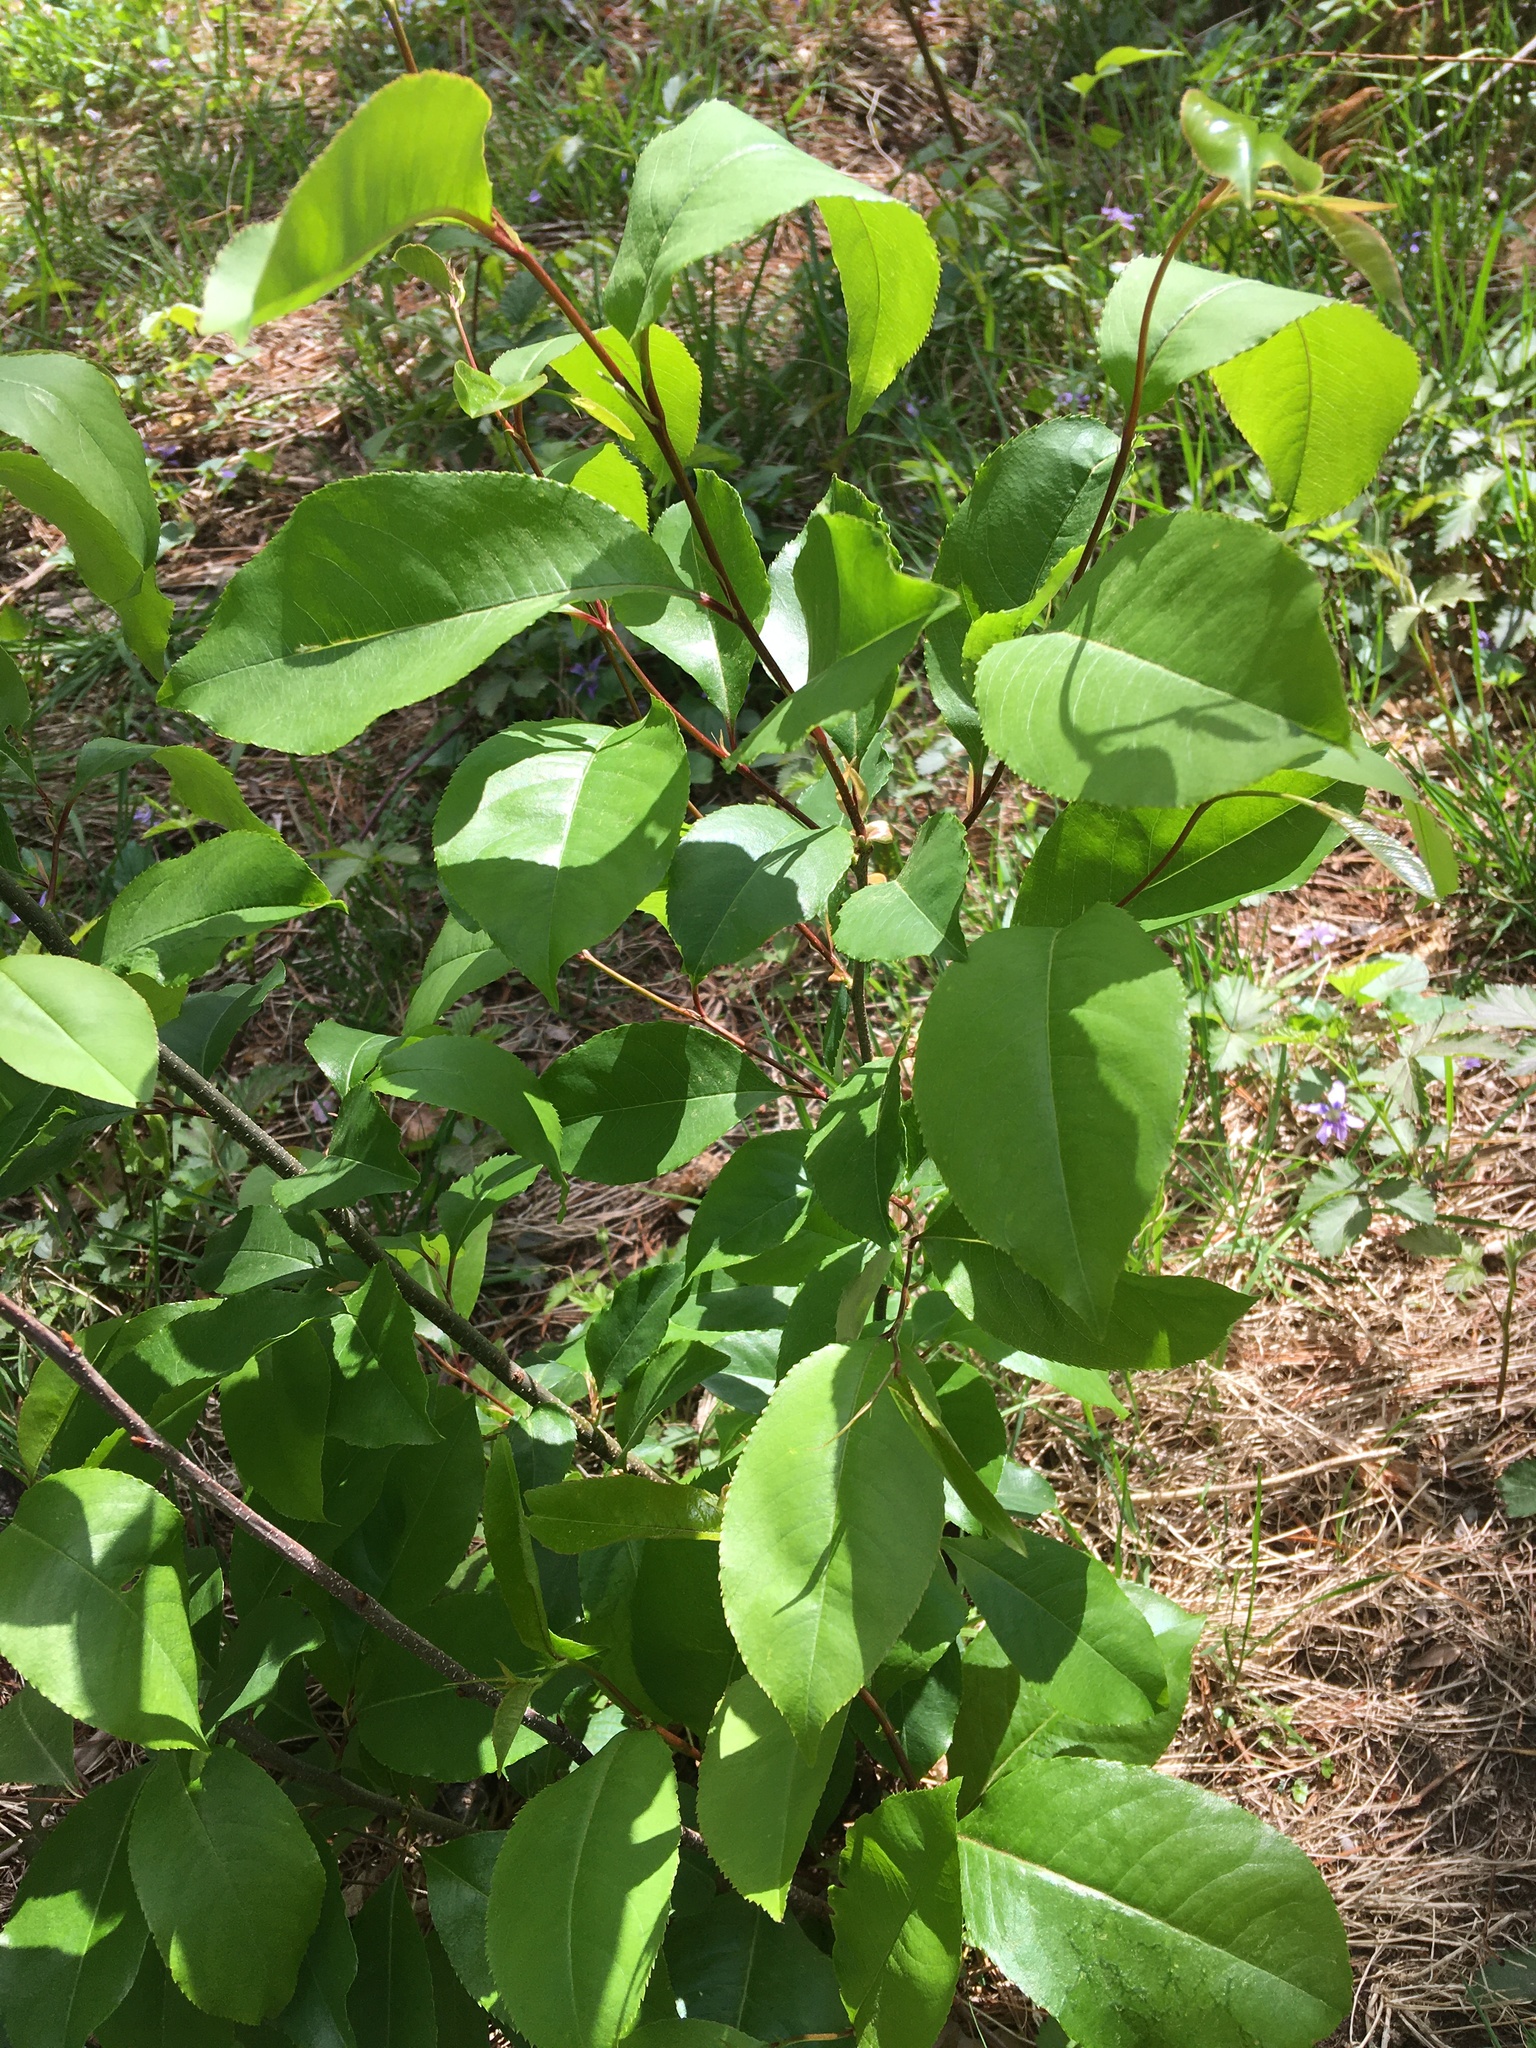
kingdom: Plantae
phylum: Tracheophyta
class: Magnoliopsida
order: Rosales
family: Rosaceae
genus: Prunus
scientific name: Prunus serotina
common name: Black cherry
